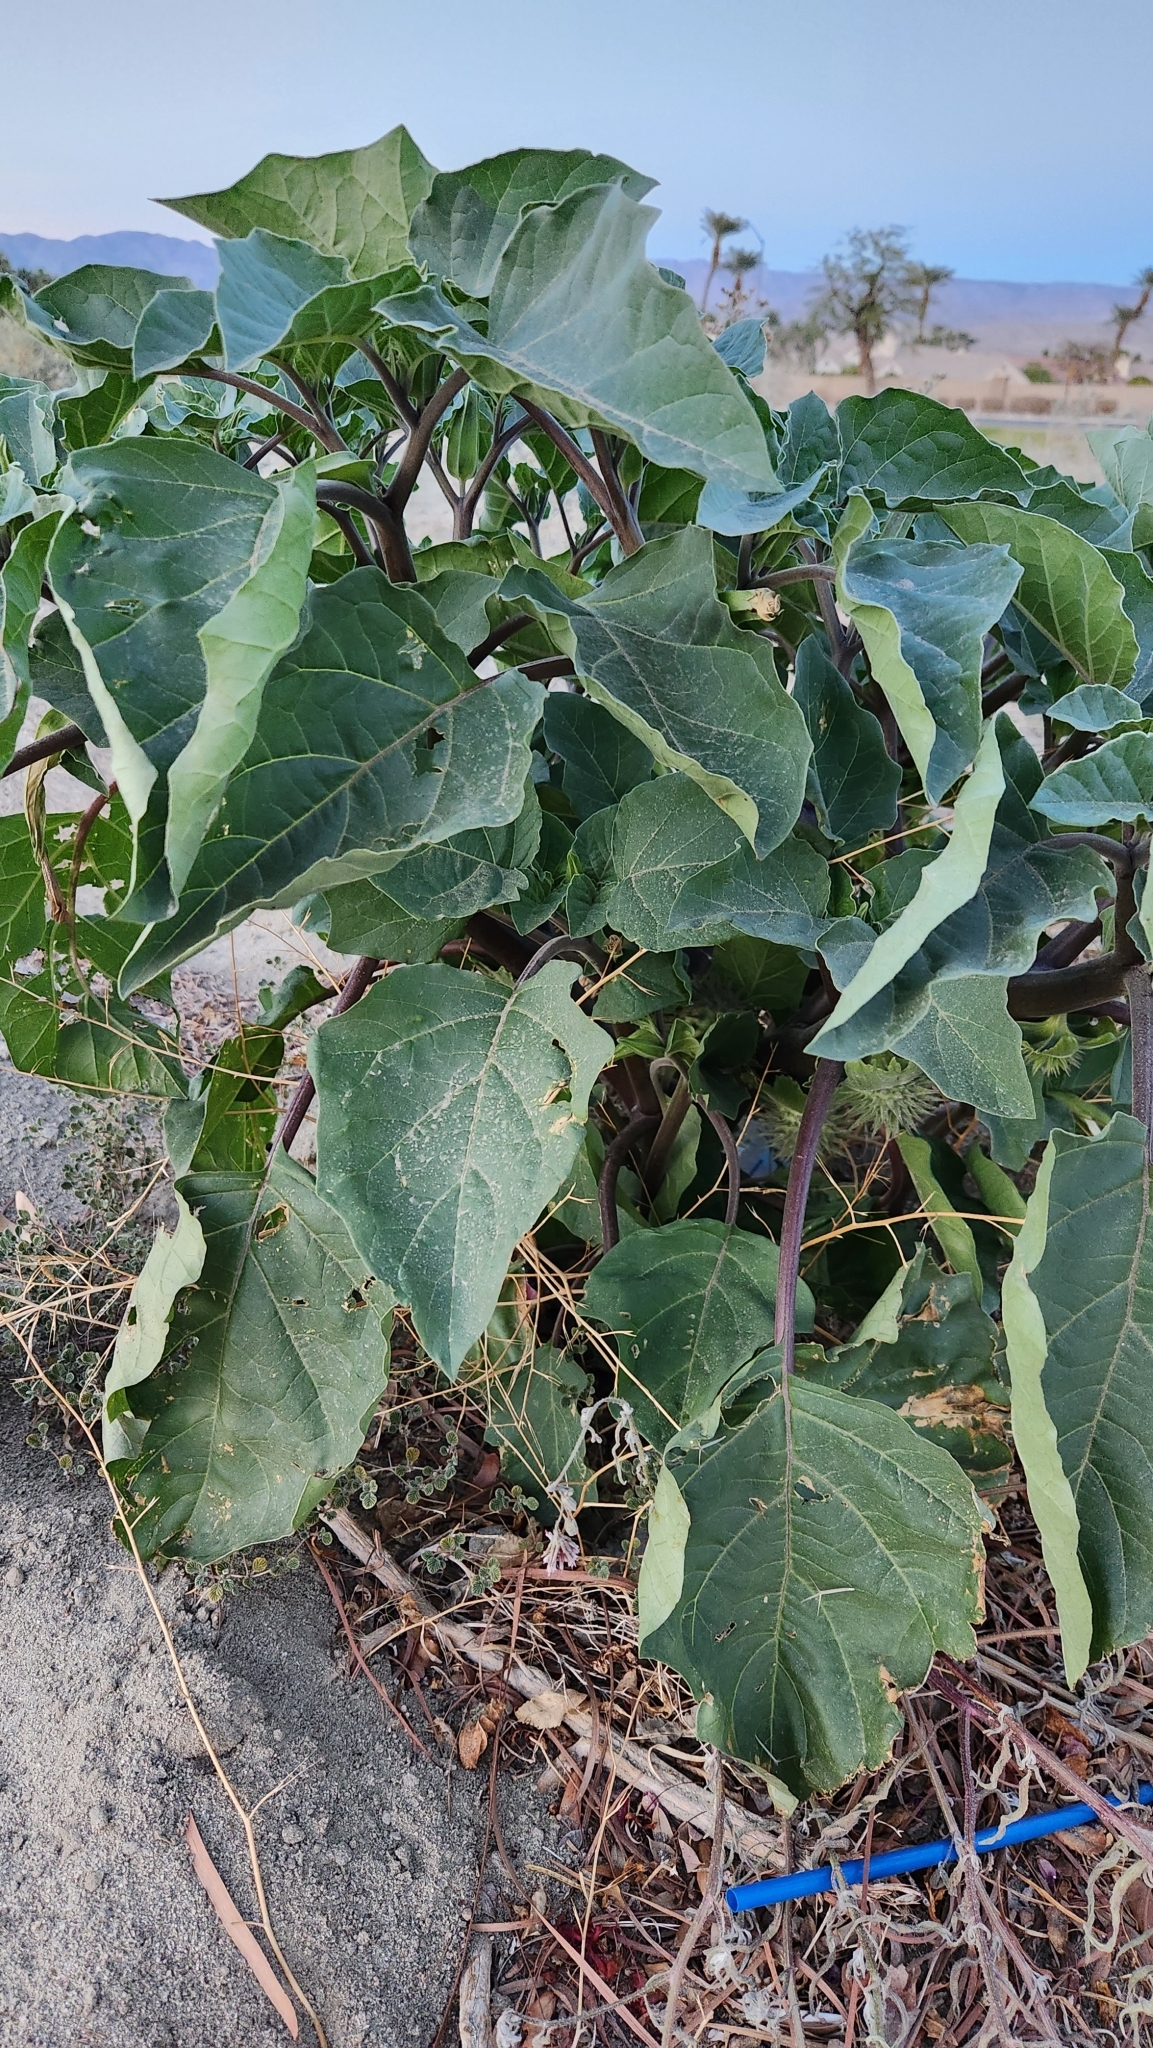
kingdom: Plantae
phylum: Tracheophyta
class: Magnoliopsida
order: Solanales
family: Solanaceae
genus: Datura
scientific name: Datura discolor
